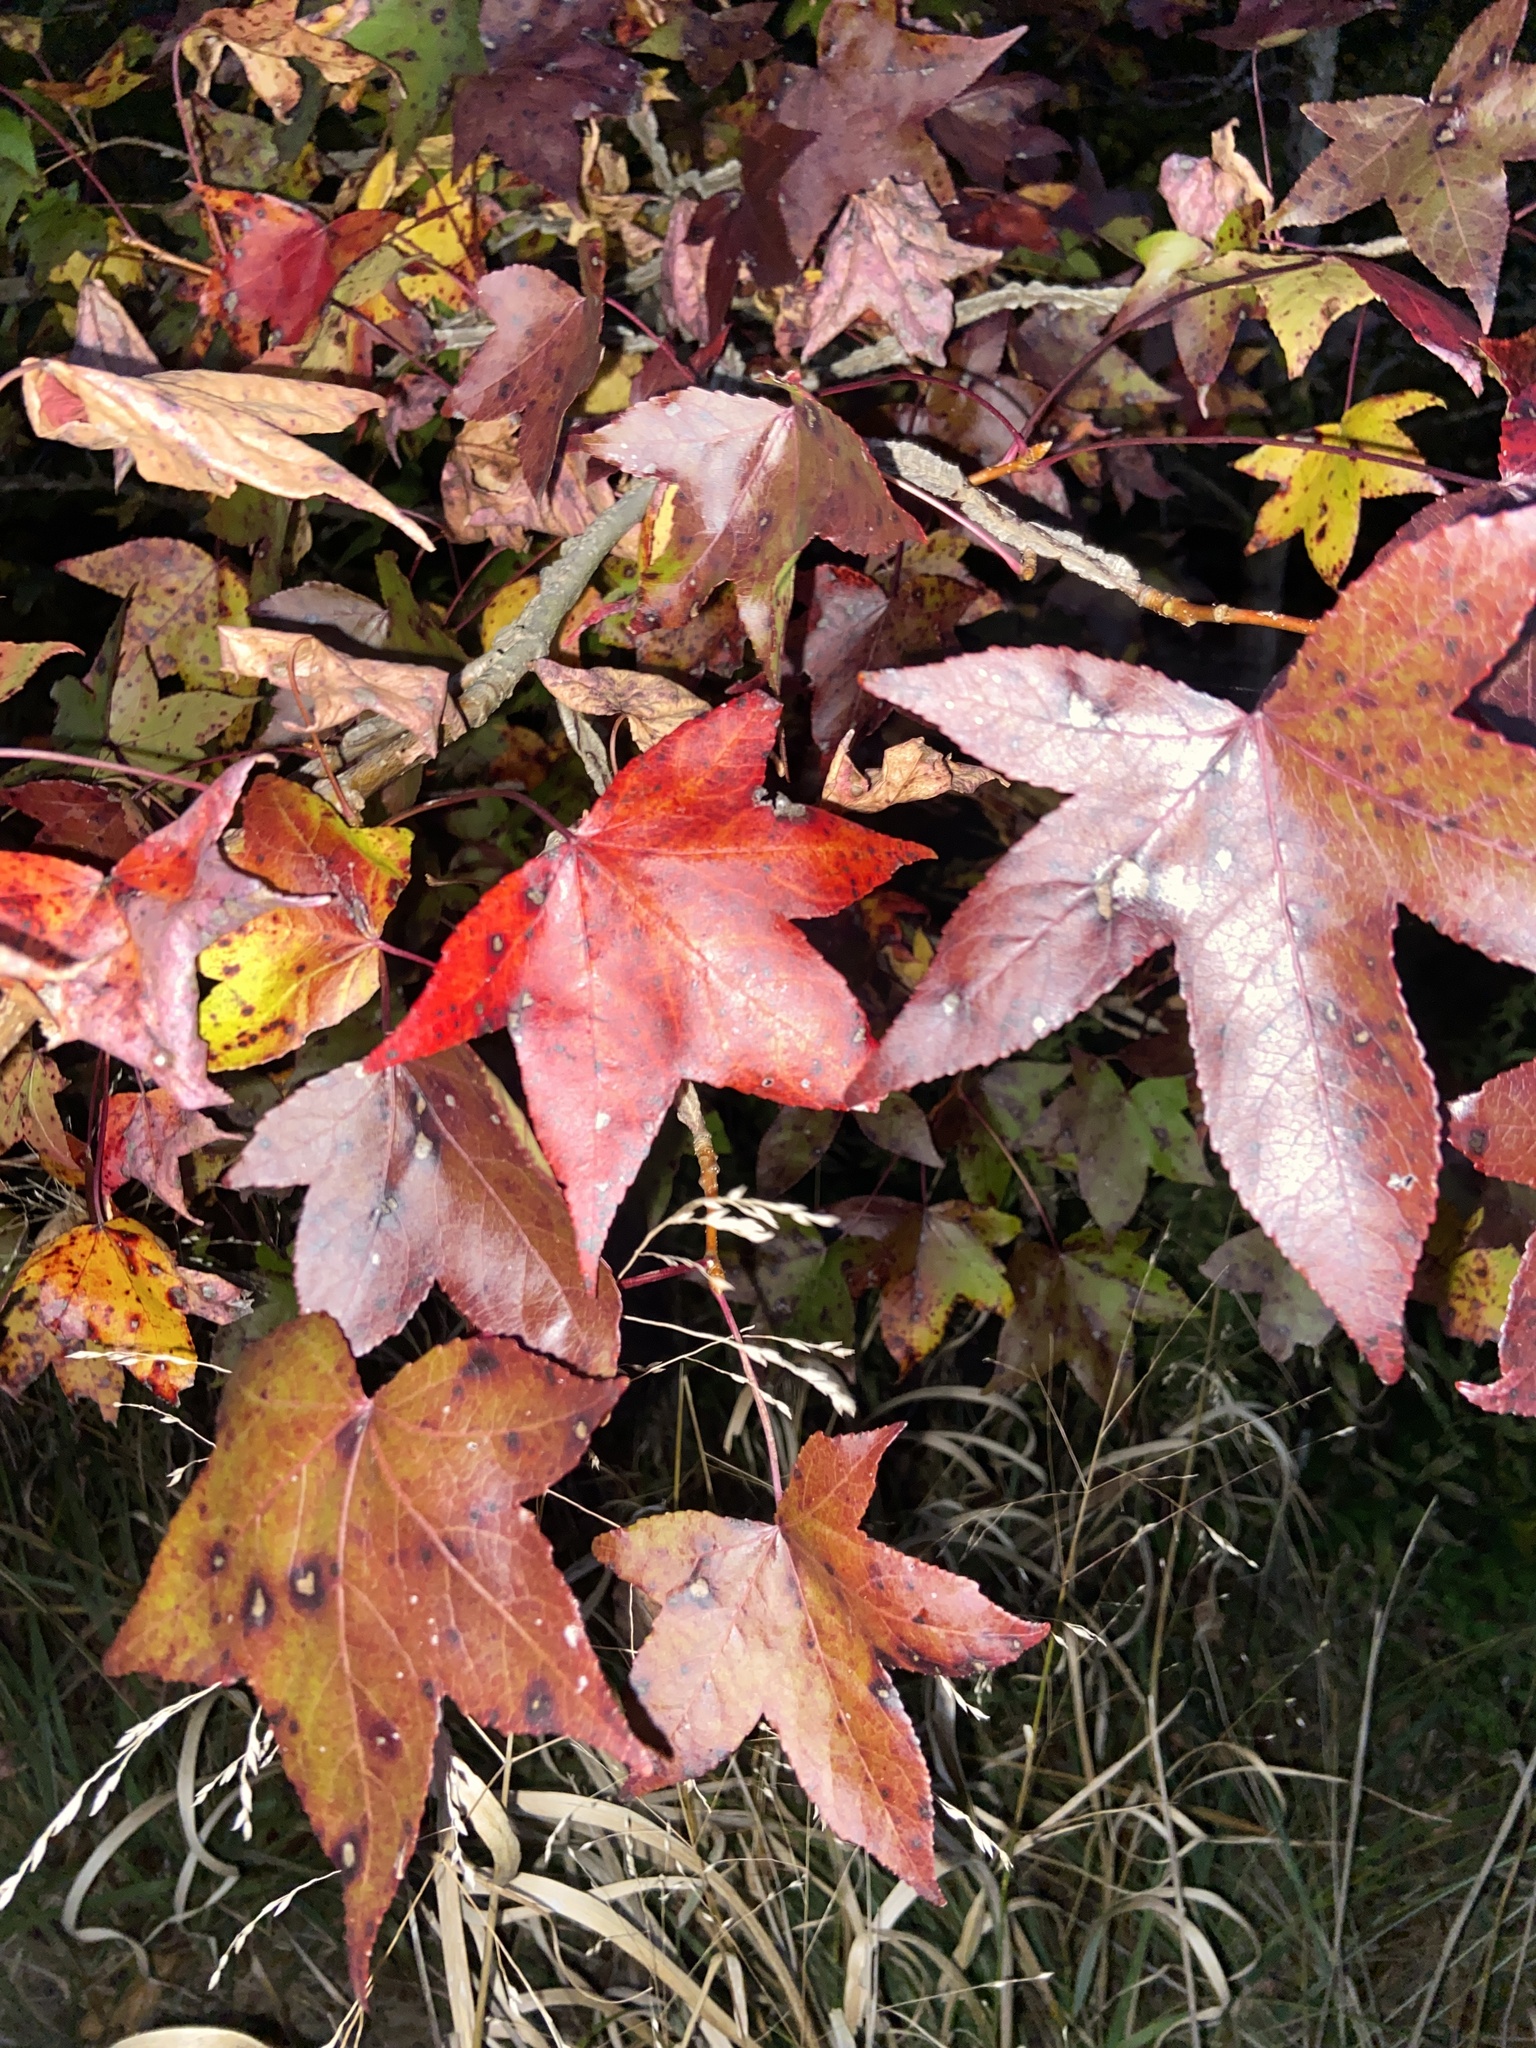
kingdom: Plantae
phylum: Tracheophyta
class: Magnoliopsida
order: Saxifragales
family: Altingiaceae
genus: Liquidambar
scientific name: Liquidambar styraciflua
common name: Sweet gum
